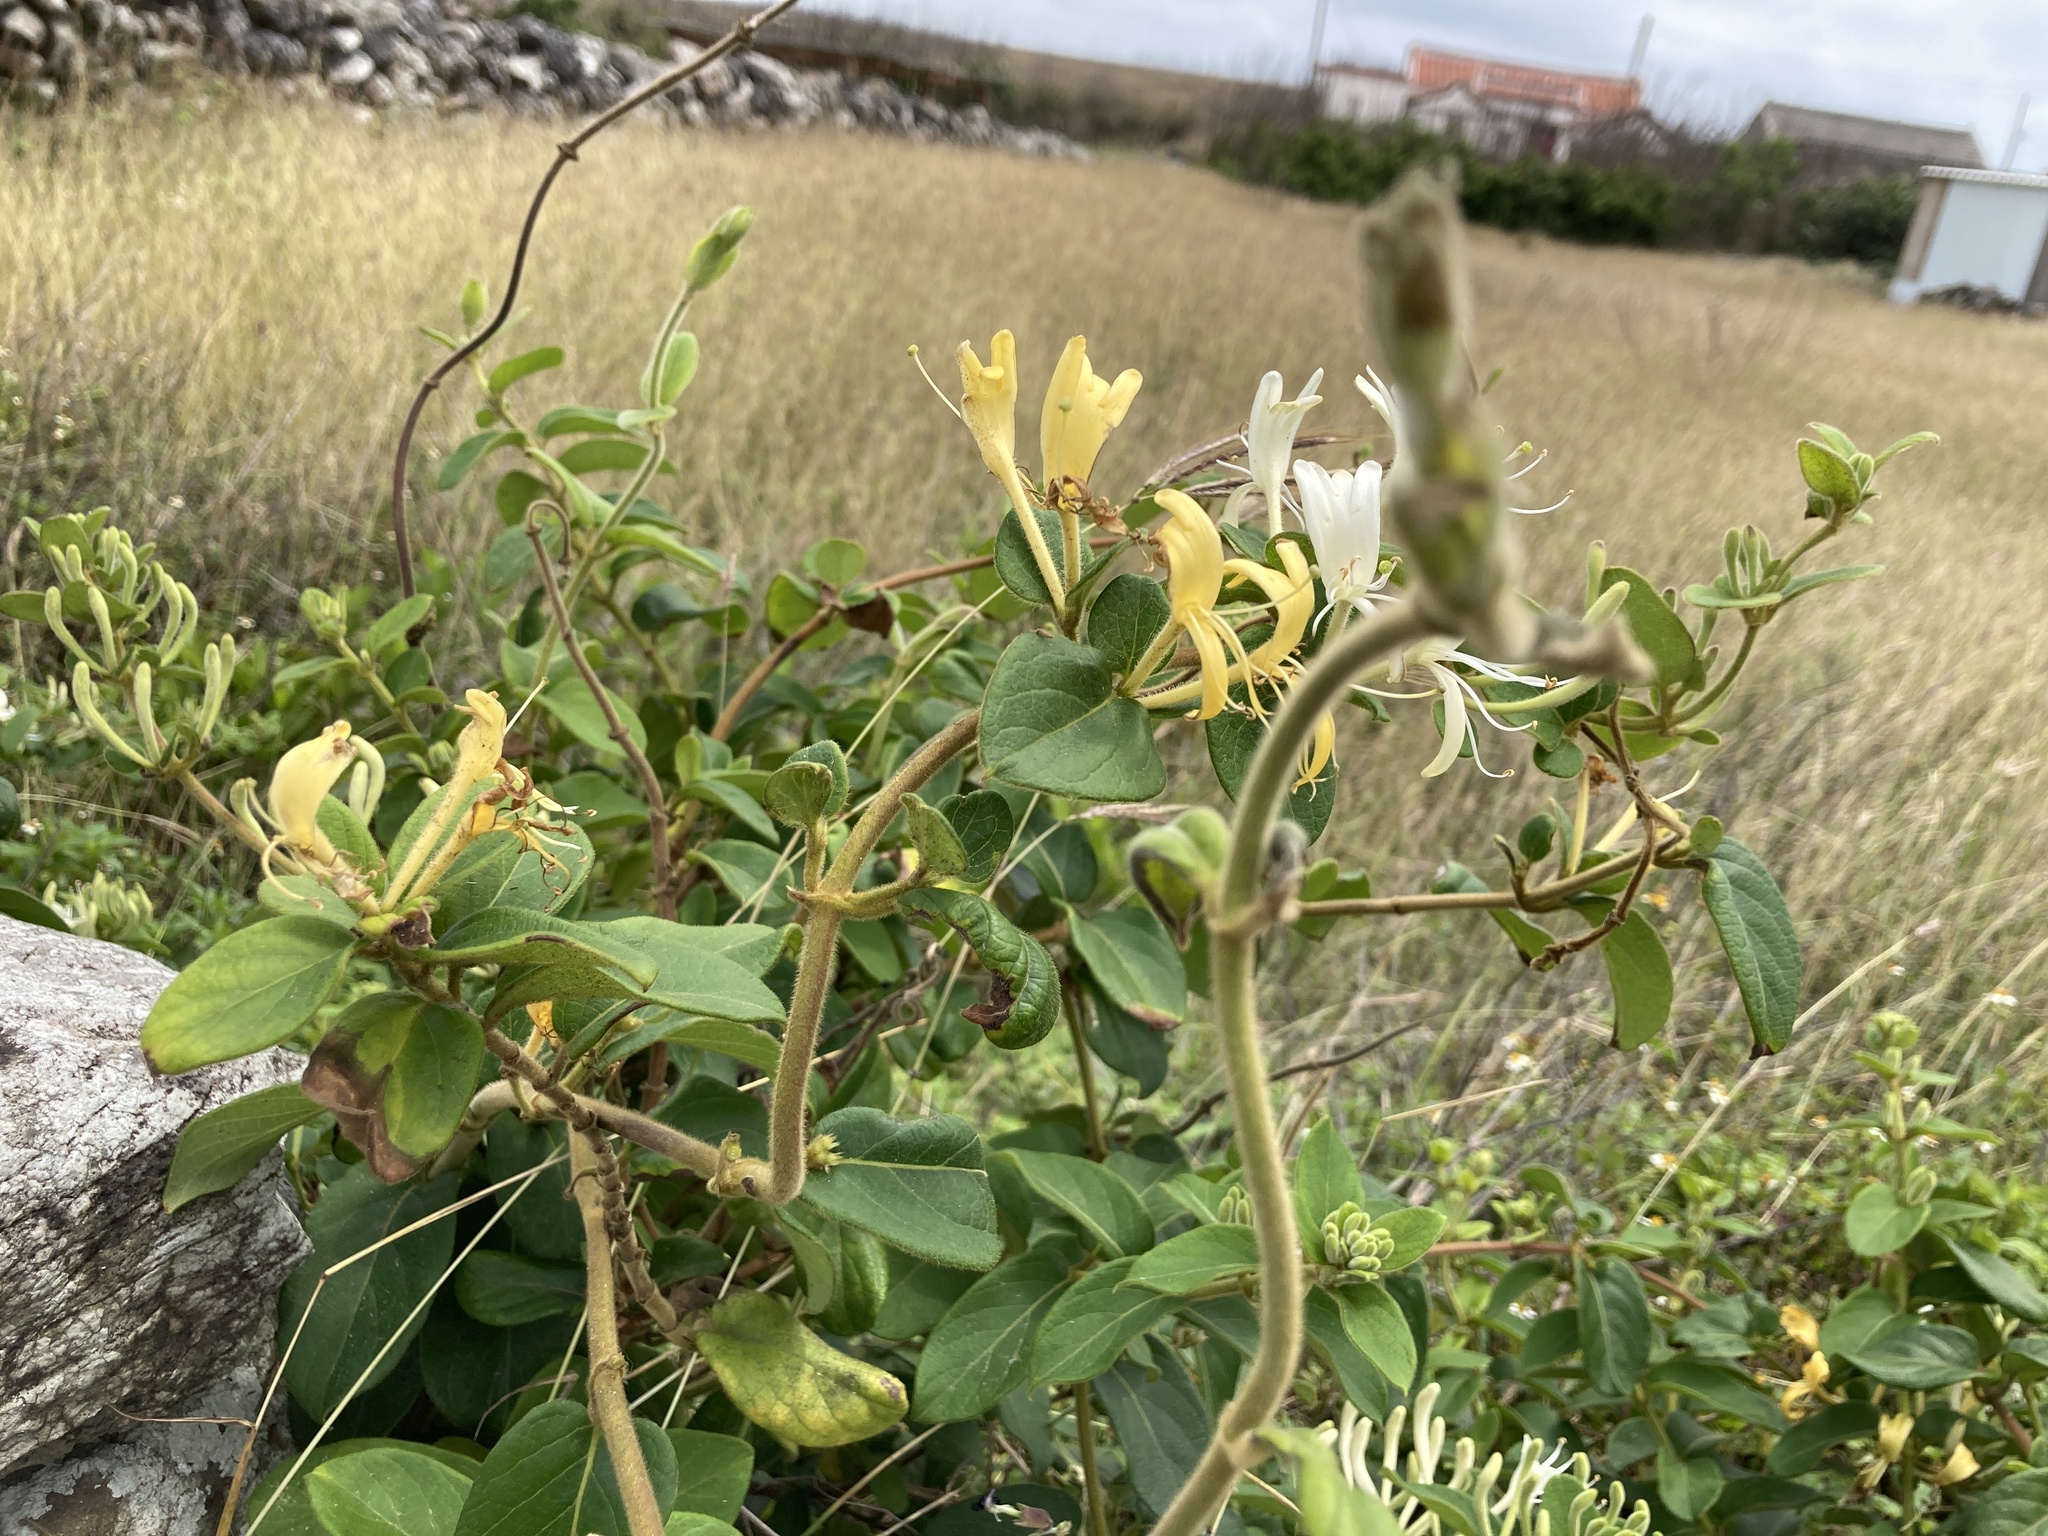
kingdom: Plantae
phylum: Tracheophyta
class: Magnoliopsida
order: Dipsacales
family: Caprifoliaceae
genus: Lonicera
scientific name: Lonicera japonica
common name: Japanese honeysuckle
